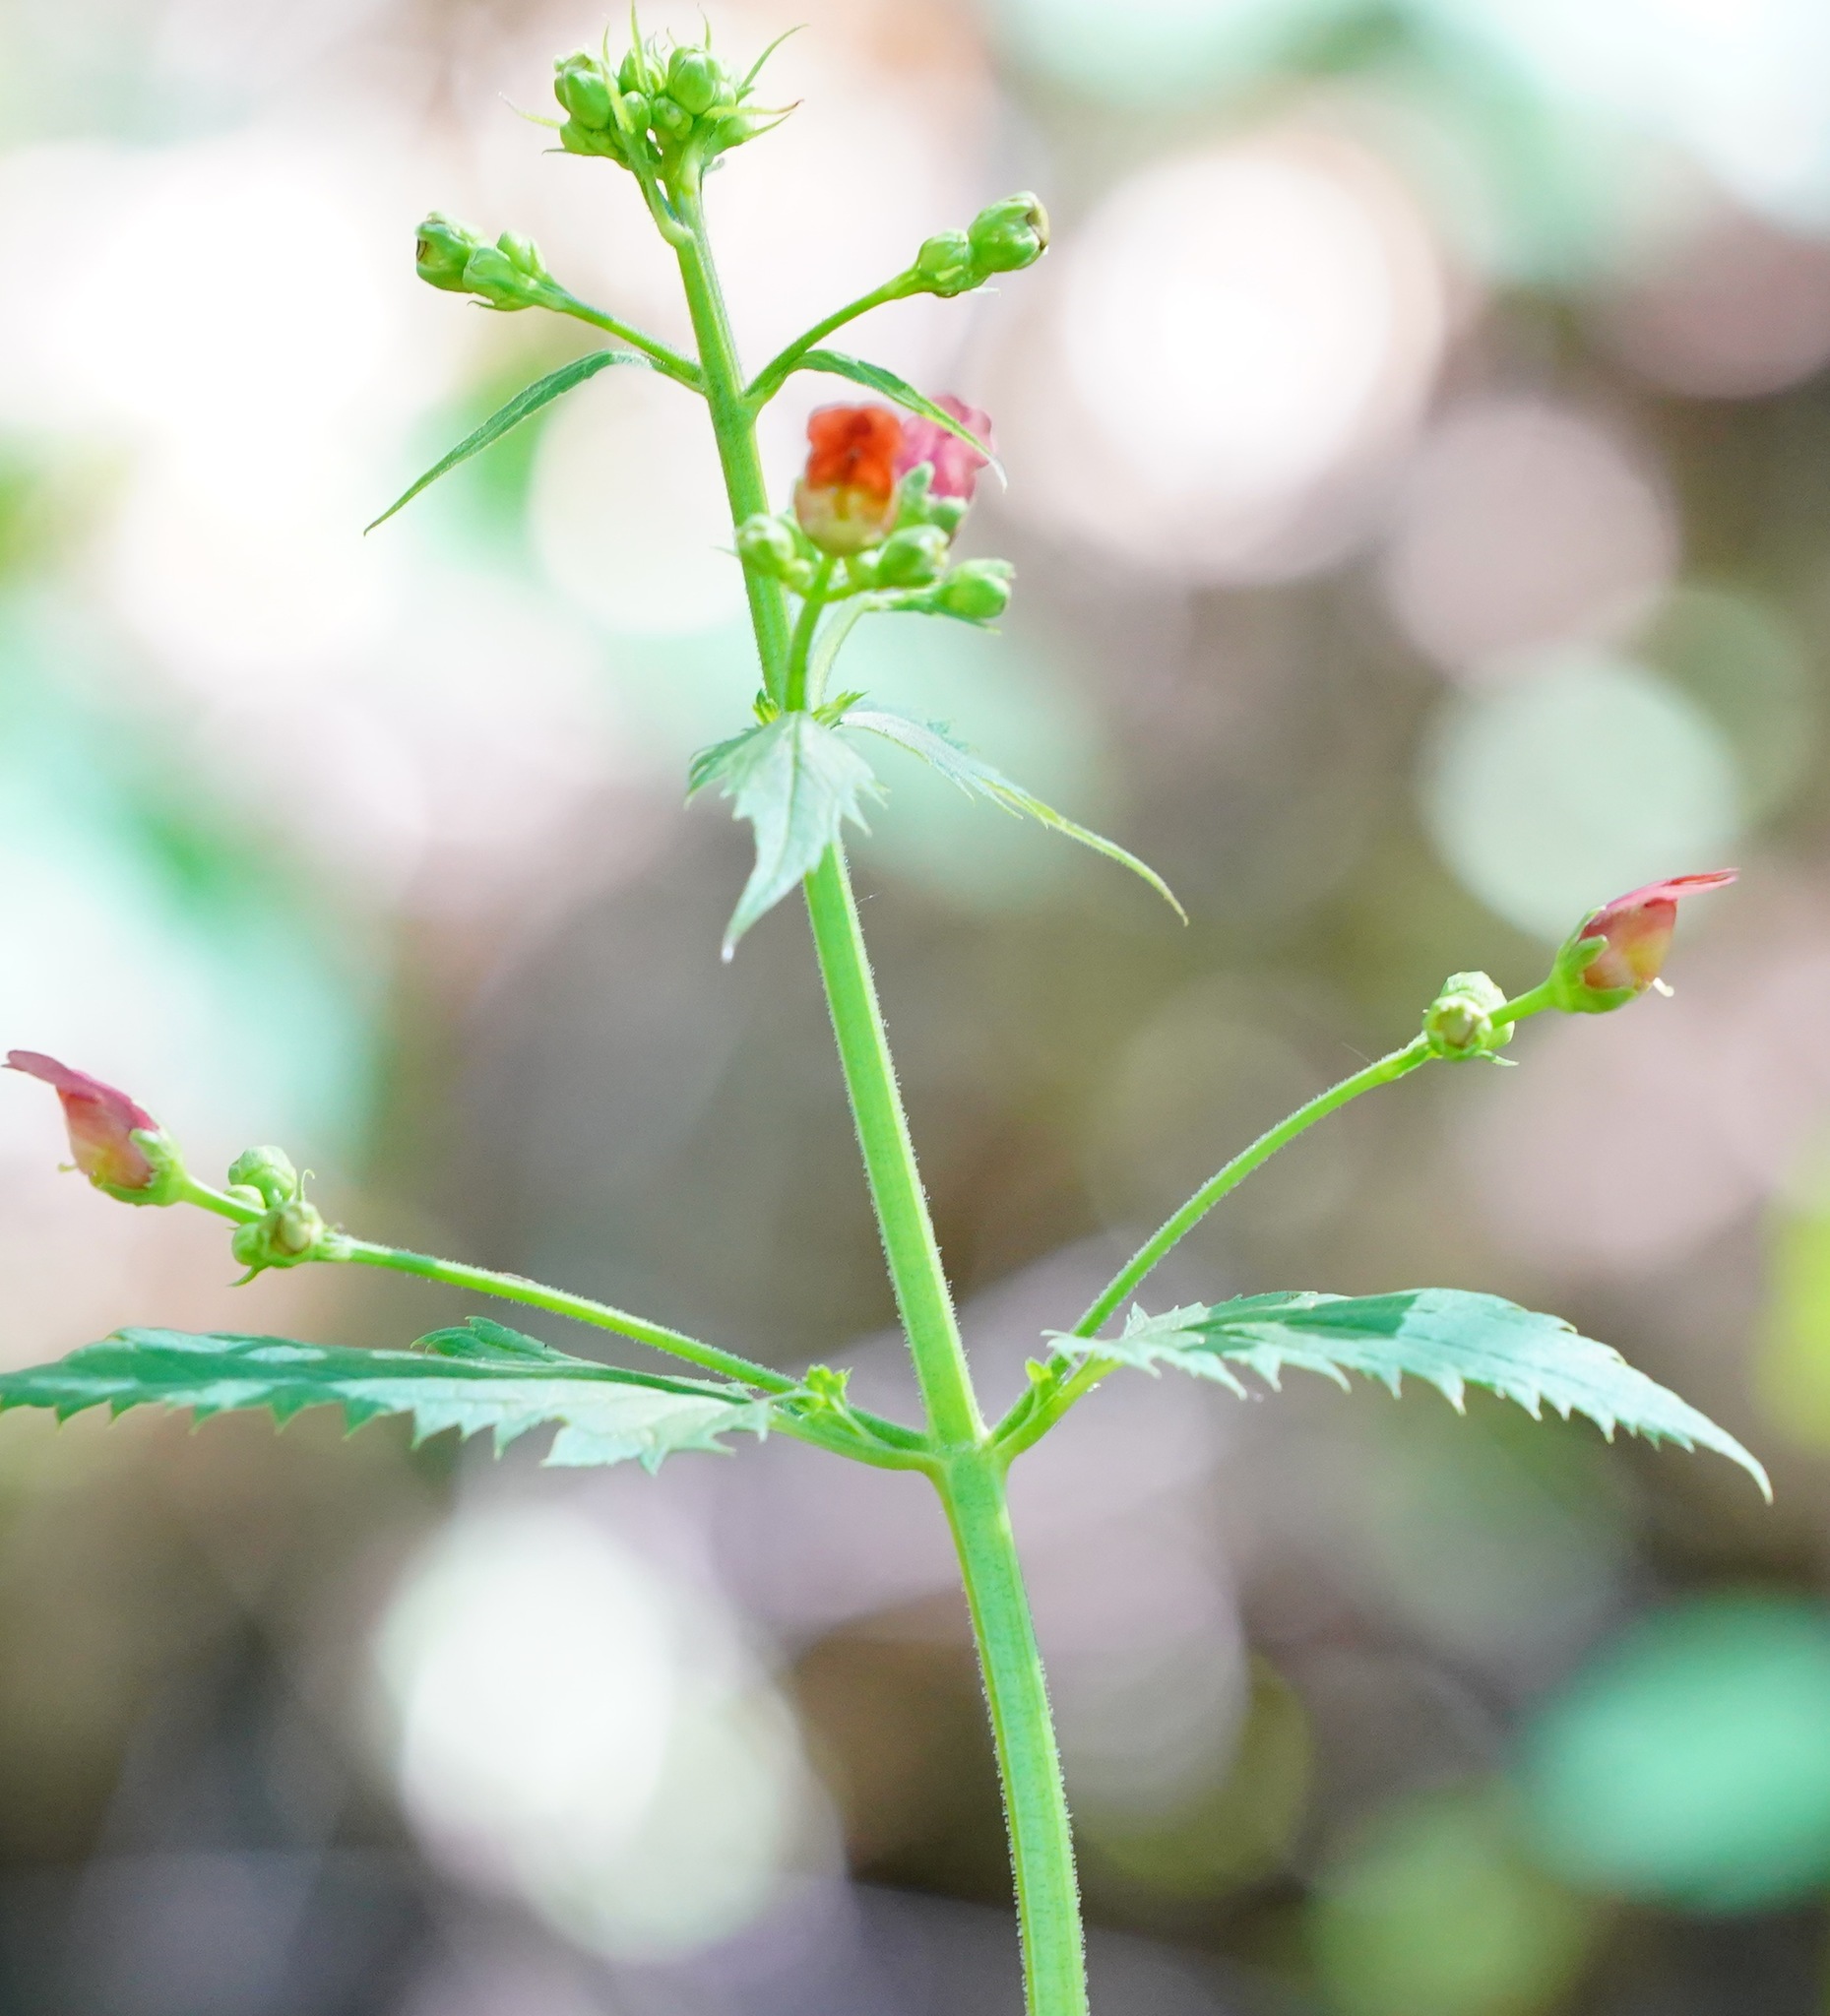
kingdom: Plantae
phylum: Tracheophyta
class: Magnoliopsida
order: Lamiales
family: Scrophulariaceae
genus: Scrophularia
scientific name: Scrophularia californica
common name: California figwort
